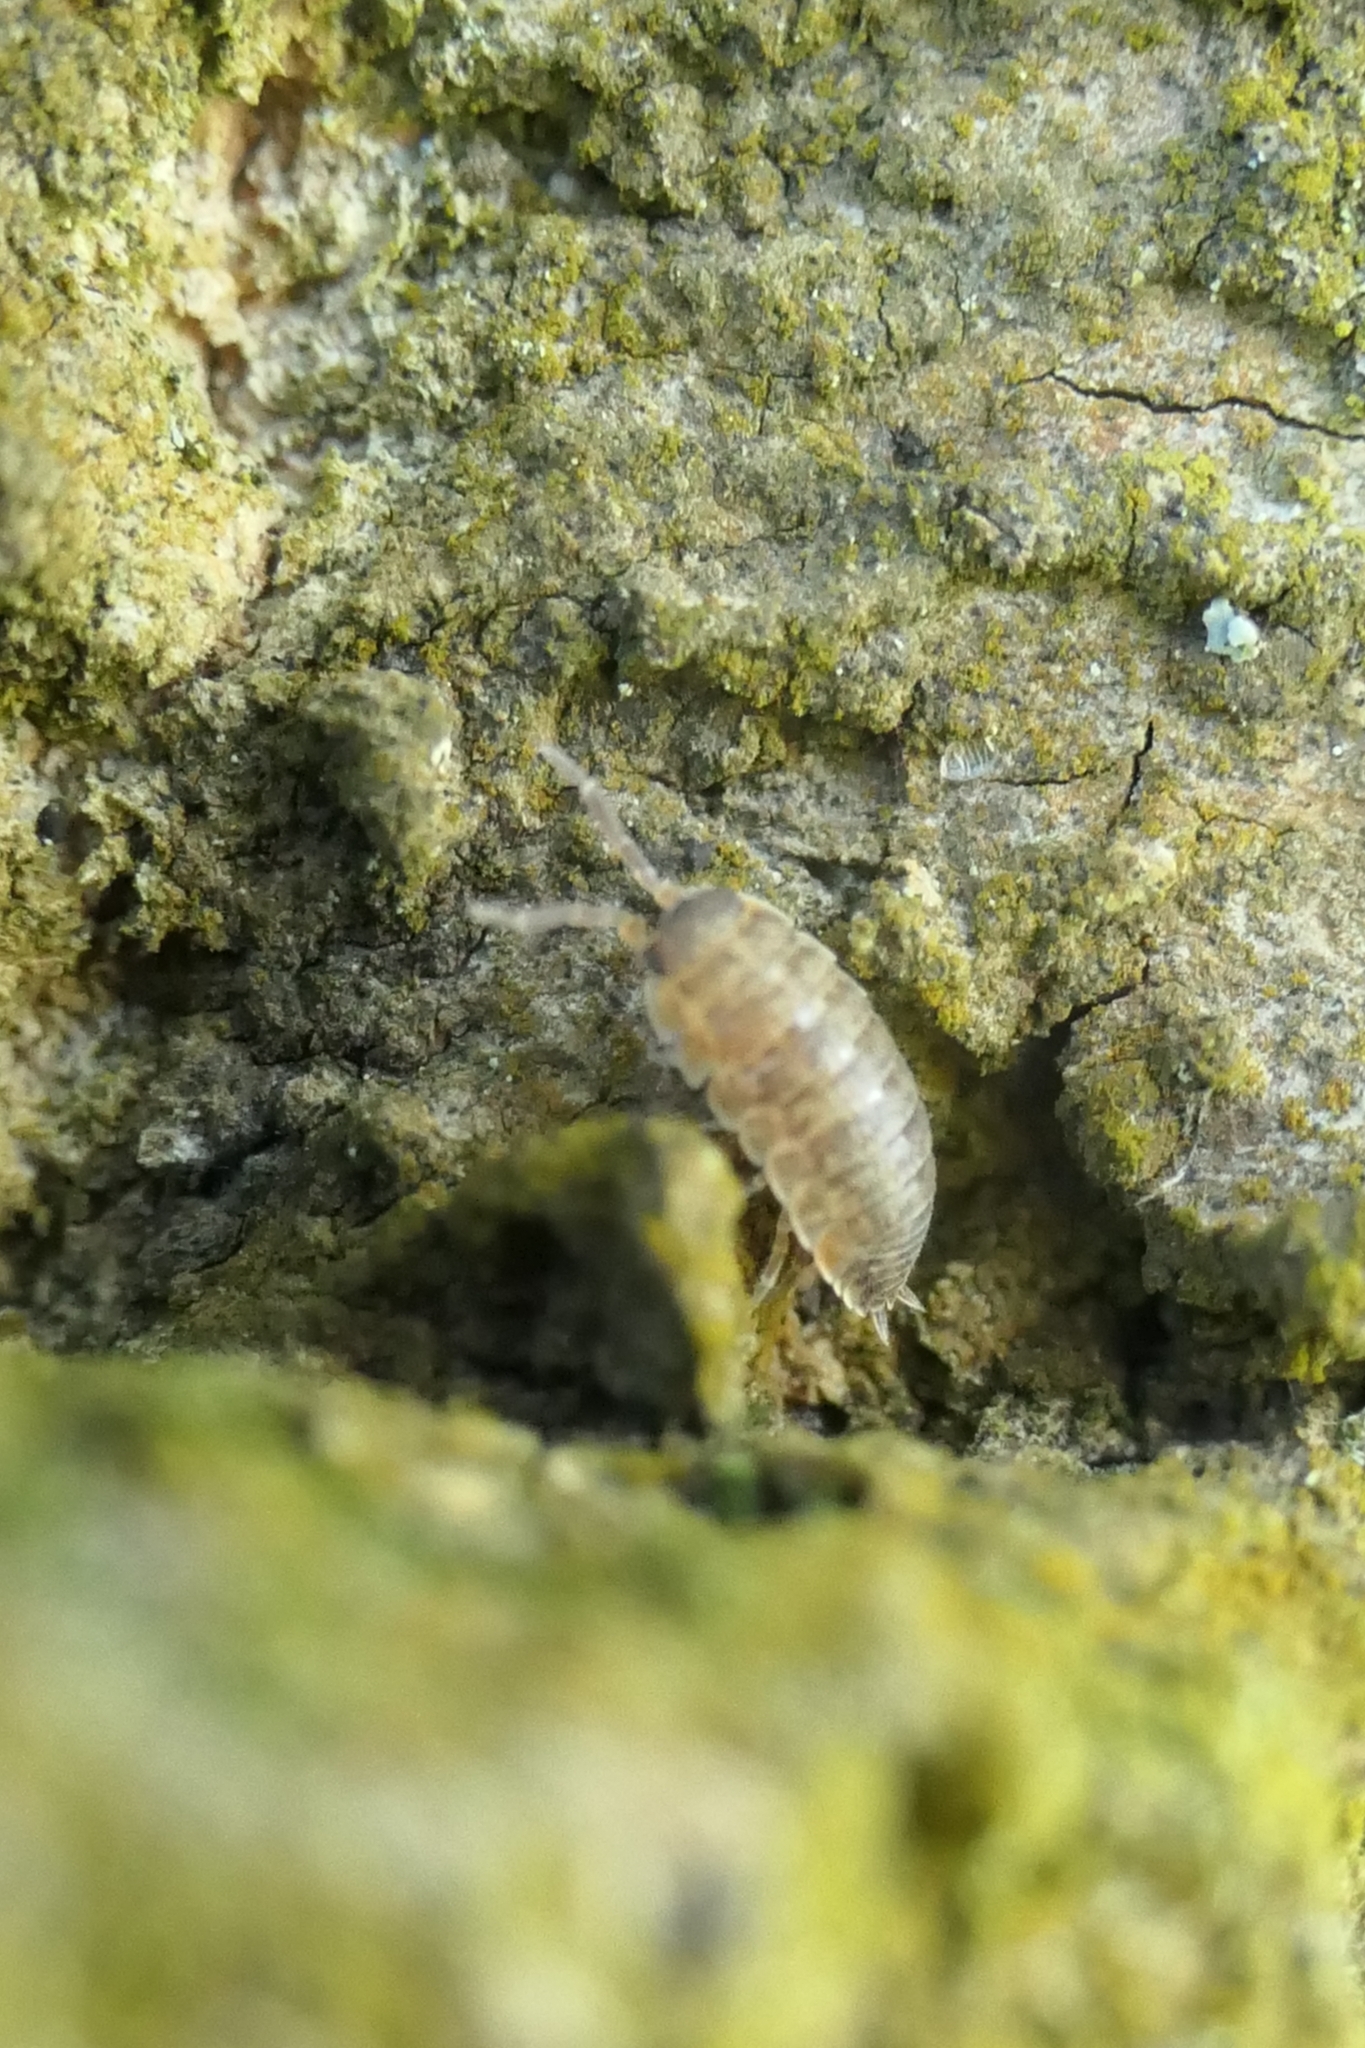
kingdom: Animalia
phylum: Arthropoda
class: Malacostraca
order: Isopoda
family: Porcellionidae
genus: Porcellio
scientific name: Porcellio scaber
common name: Common rough woodlouse
